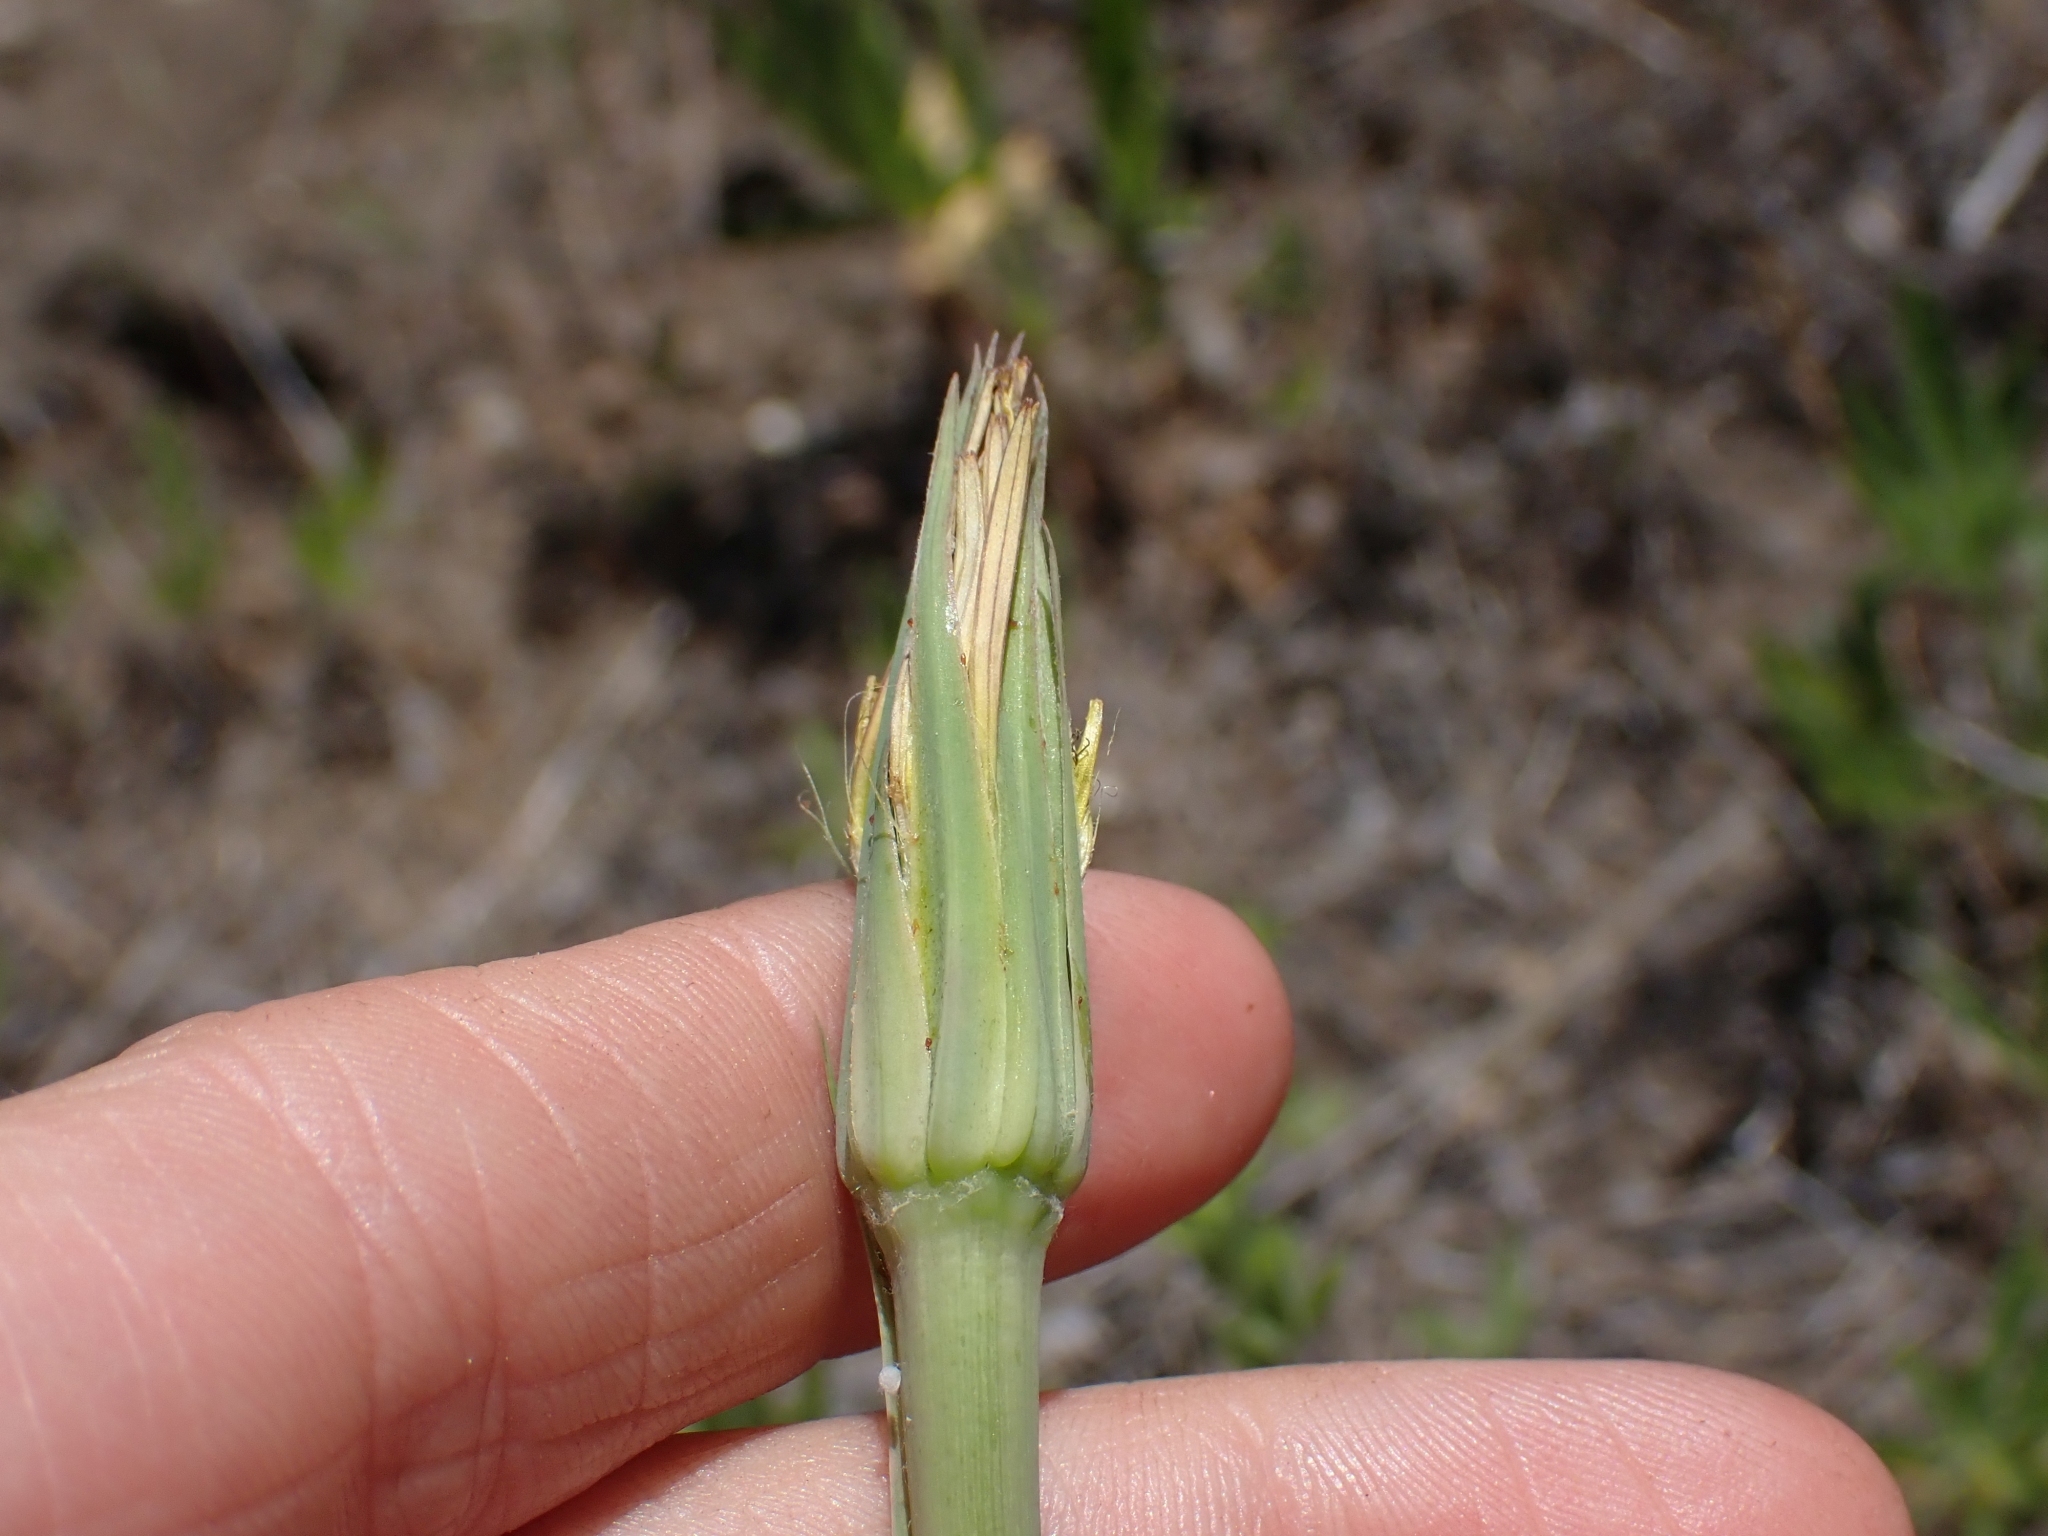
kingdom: Plantae
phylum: Tracheophyta
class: Magnoliopsida
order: Asterales
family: Asteraceae
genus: Tragopogon
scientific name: Tragopogon dubius
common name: Yellow salsify
